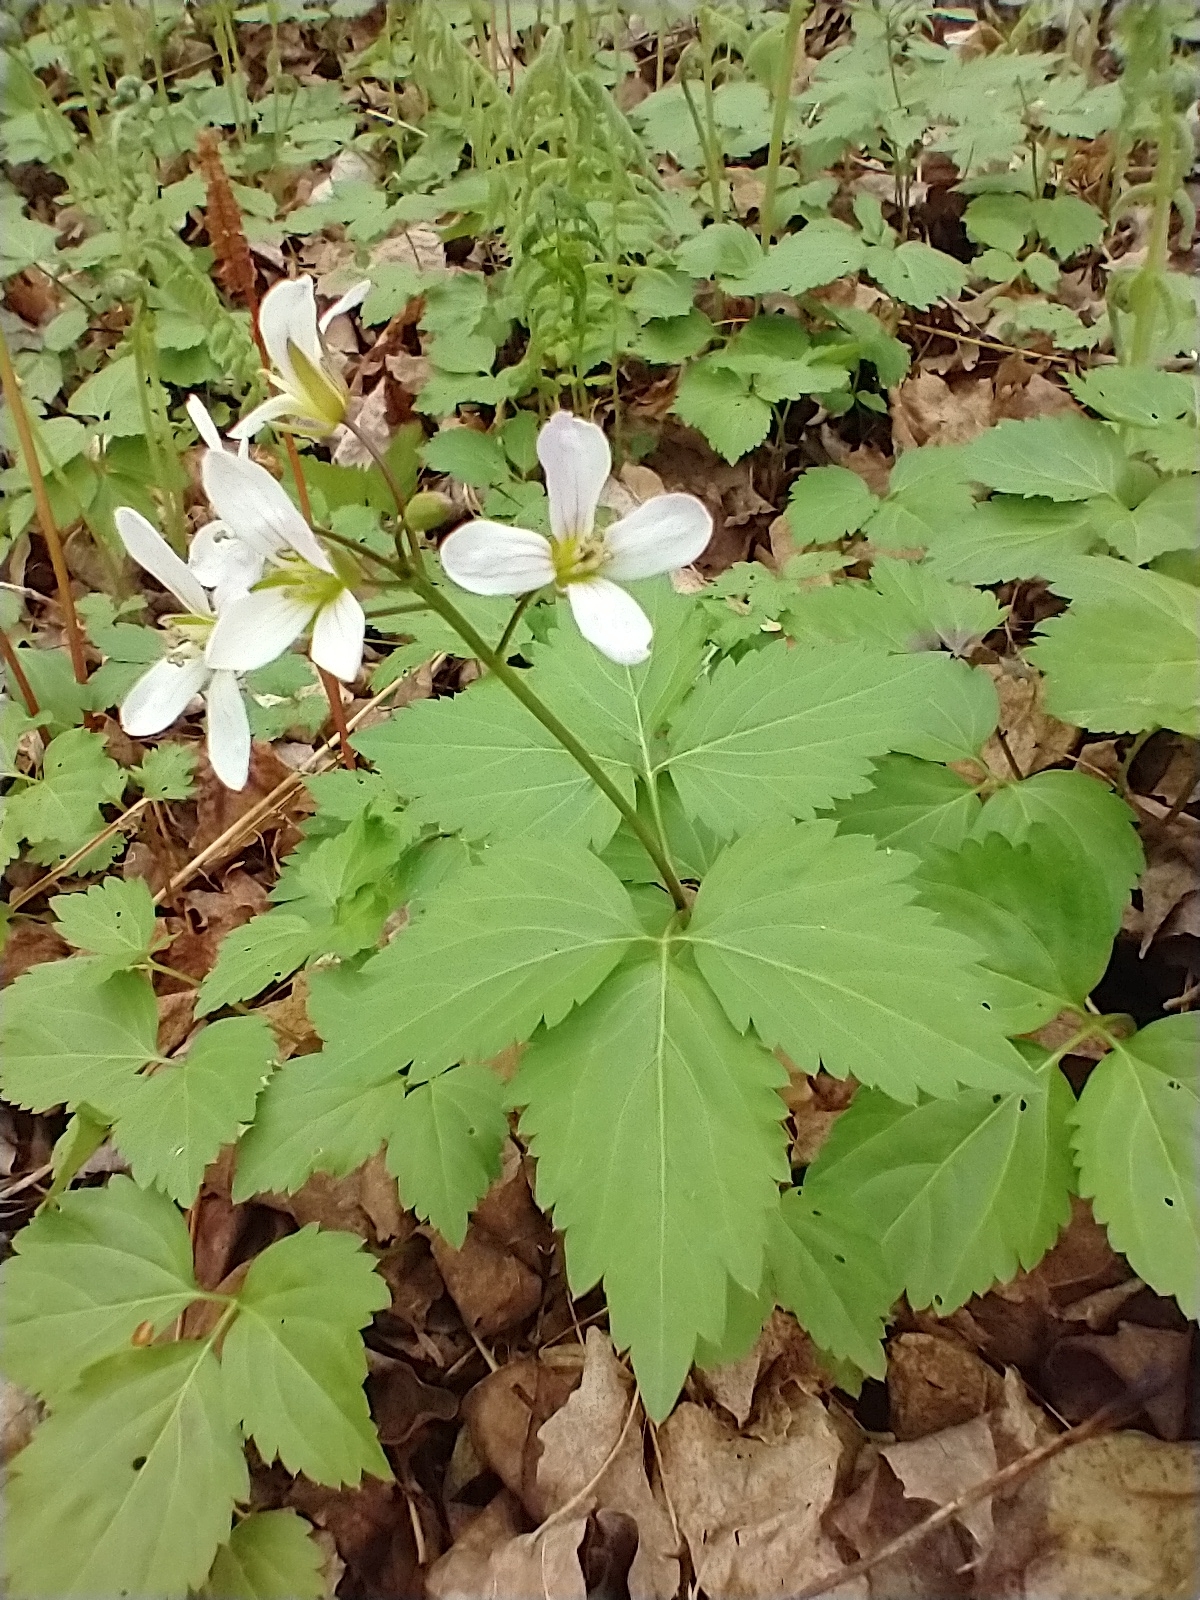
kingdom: Plantae
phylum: Tracheophyta
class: Magnoliopsida
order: Brassicales
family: Brassicaceae
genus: Cardamine
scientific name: Cardamine diphylla
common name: Broad-leaved toothwort
